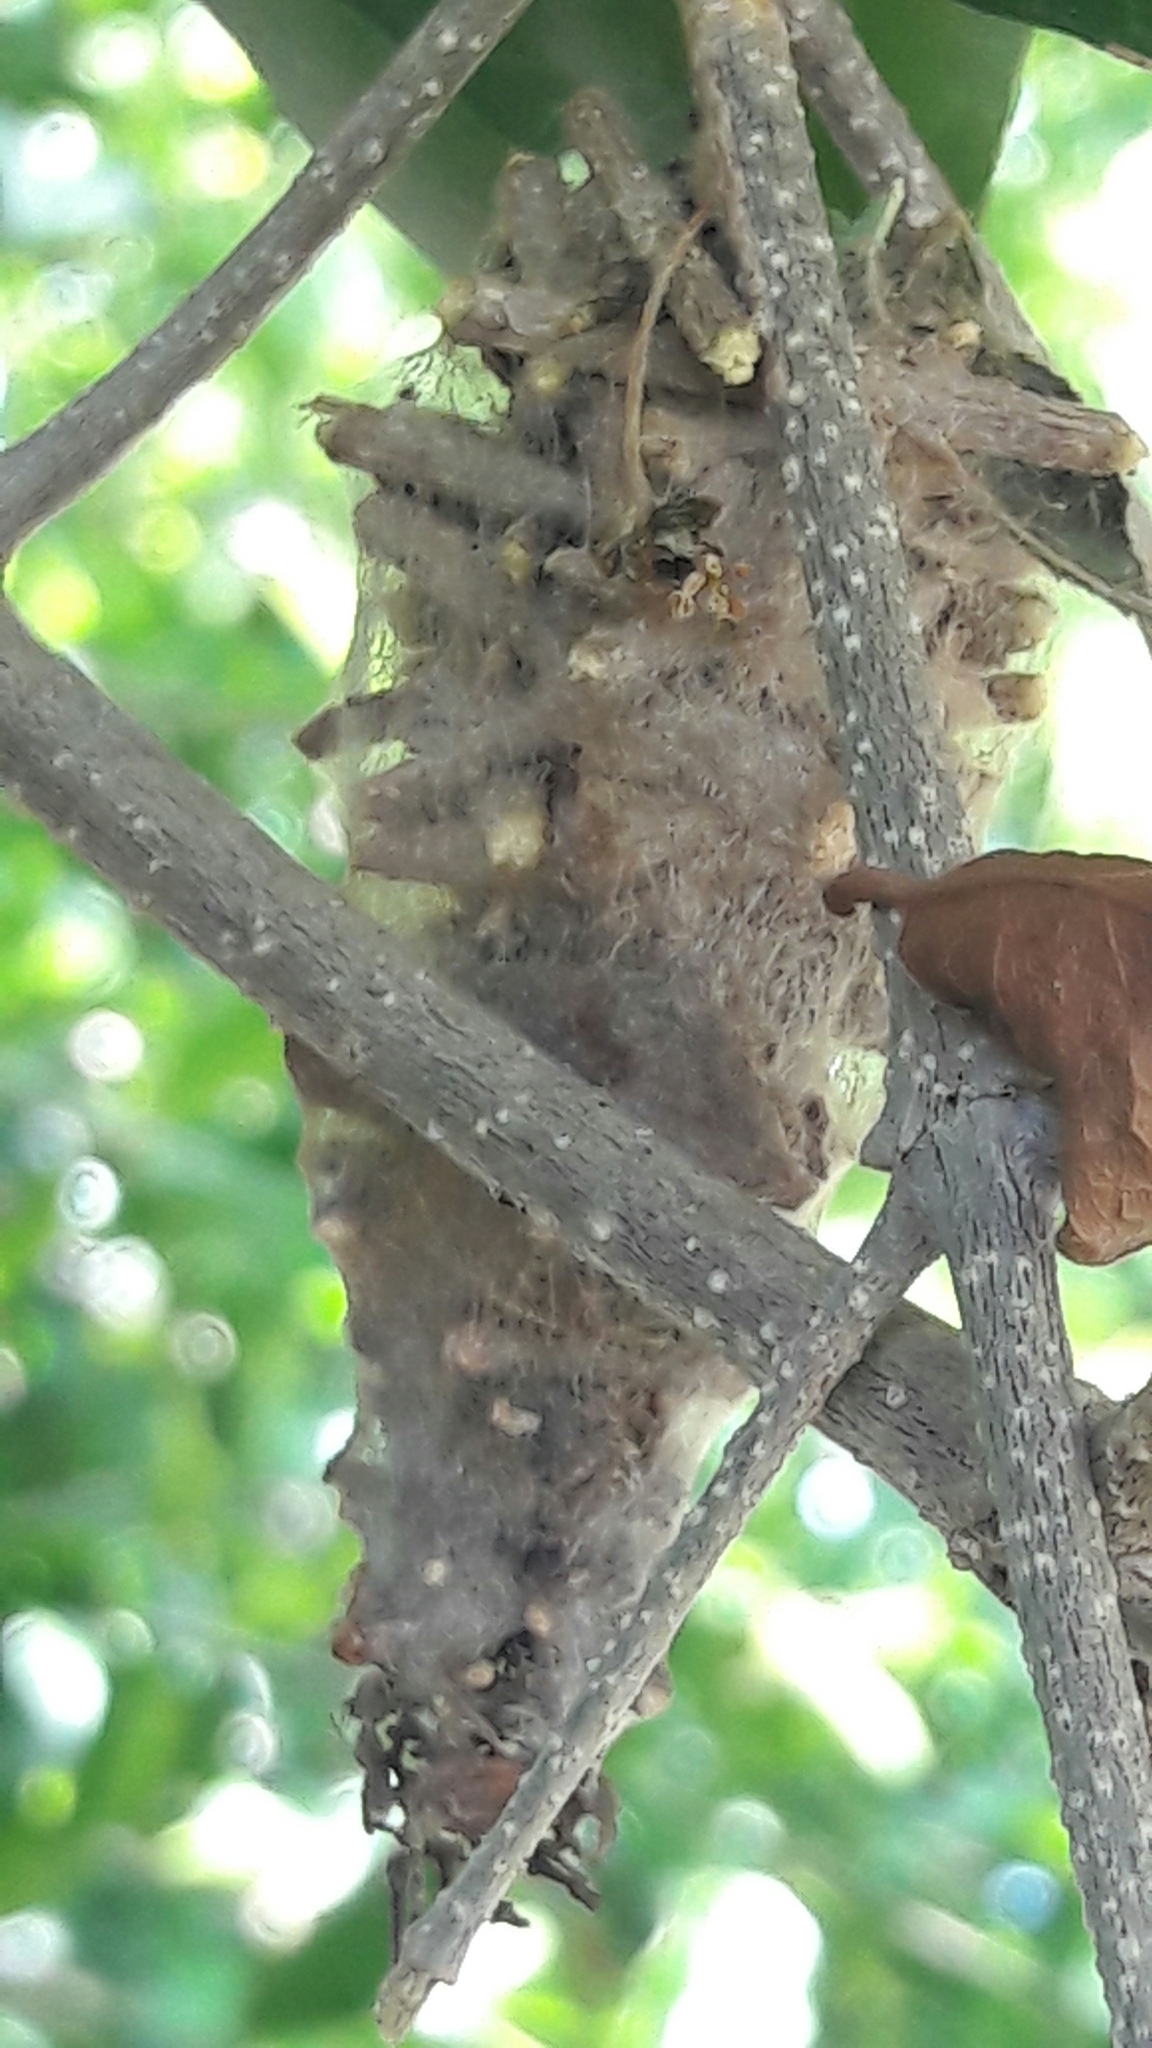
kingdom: Animalia
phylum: Arthropoda
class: Insecta
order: Lepidoptera
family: Psychidae
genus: Oiketicus
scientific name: Oiketicus kirbyi
